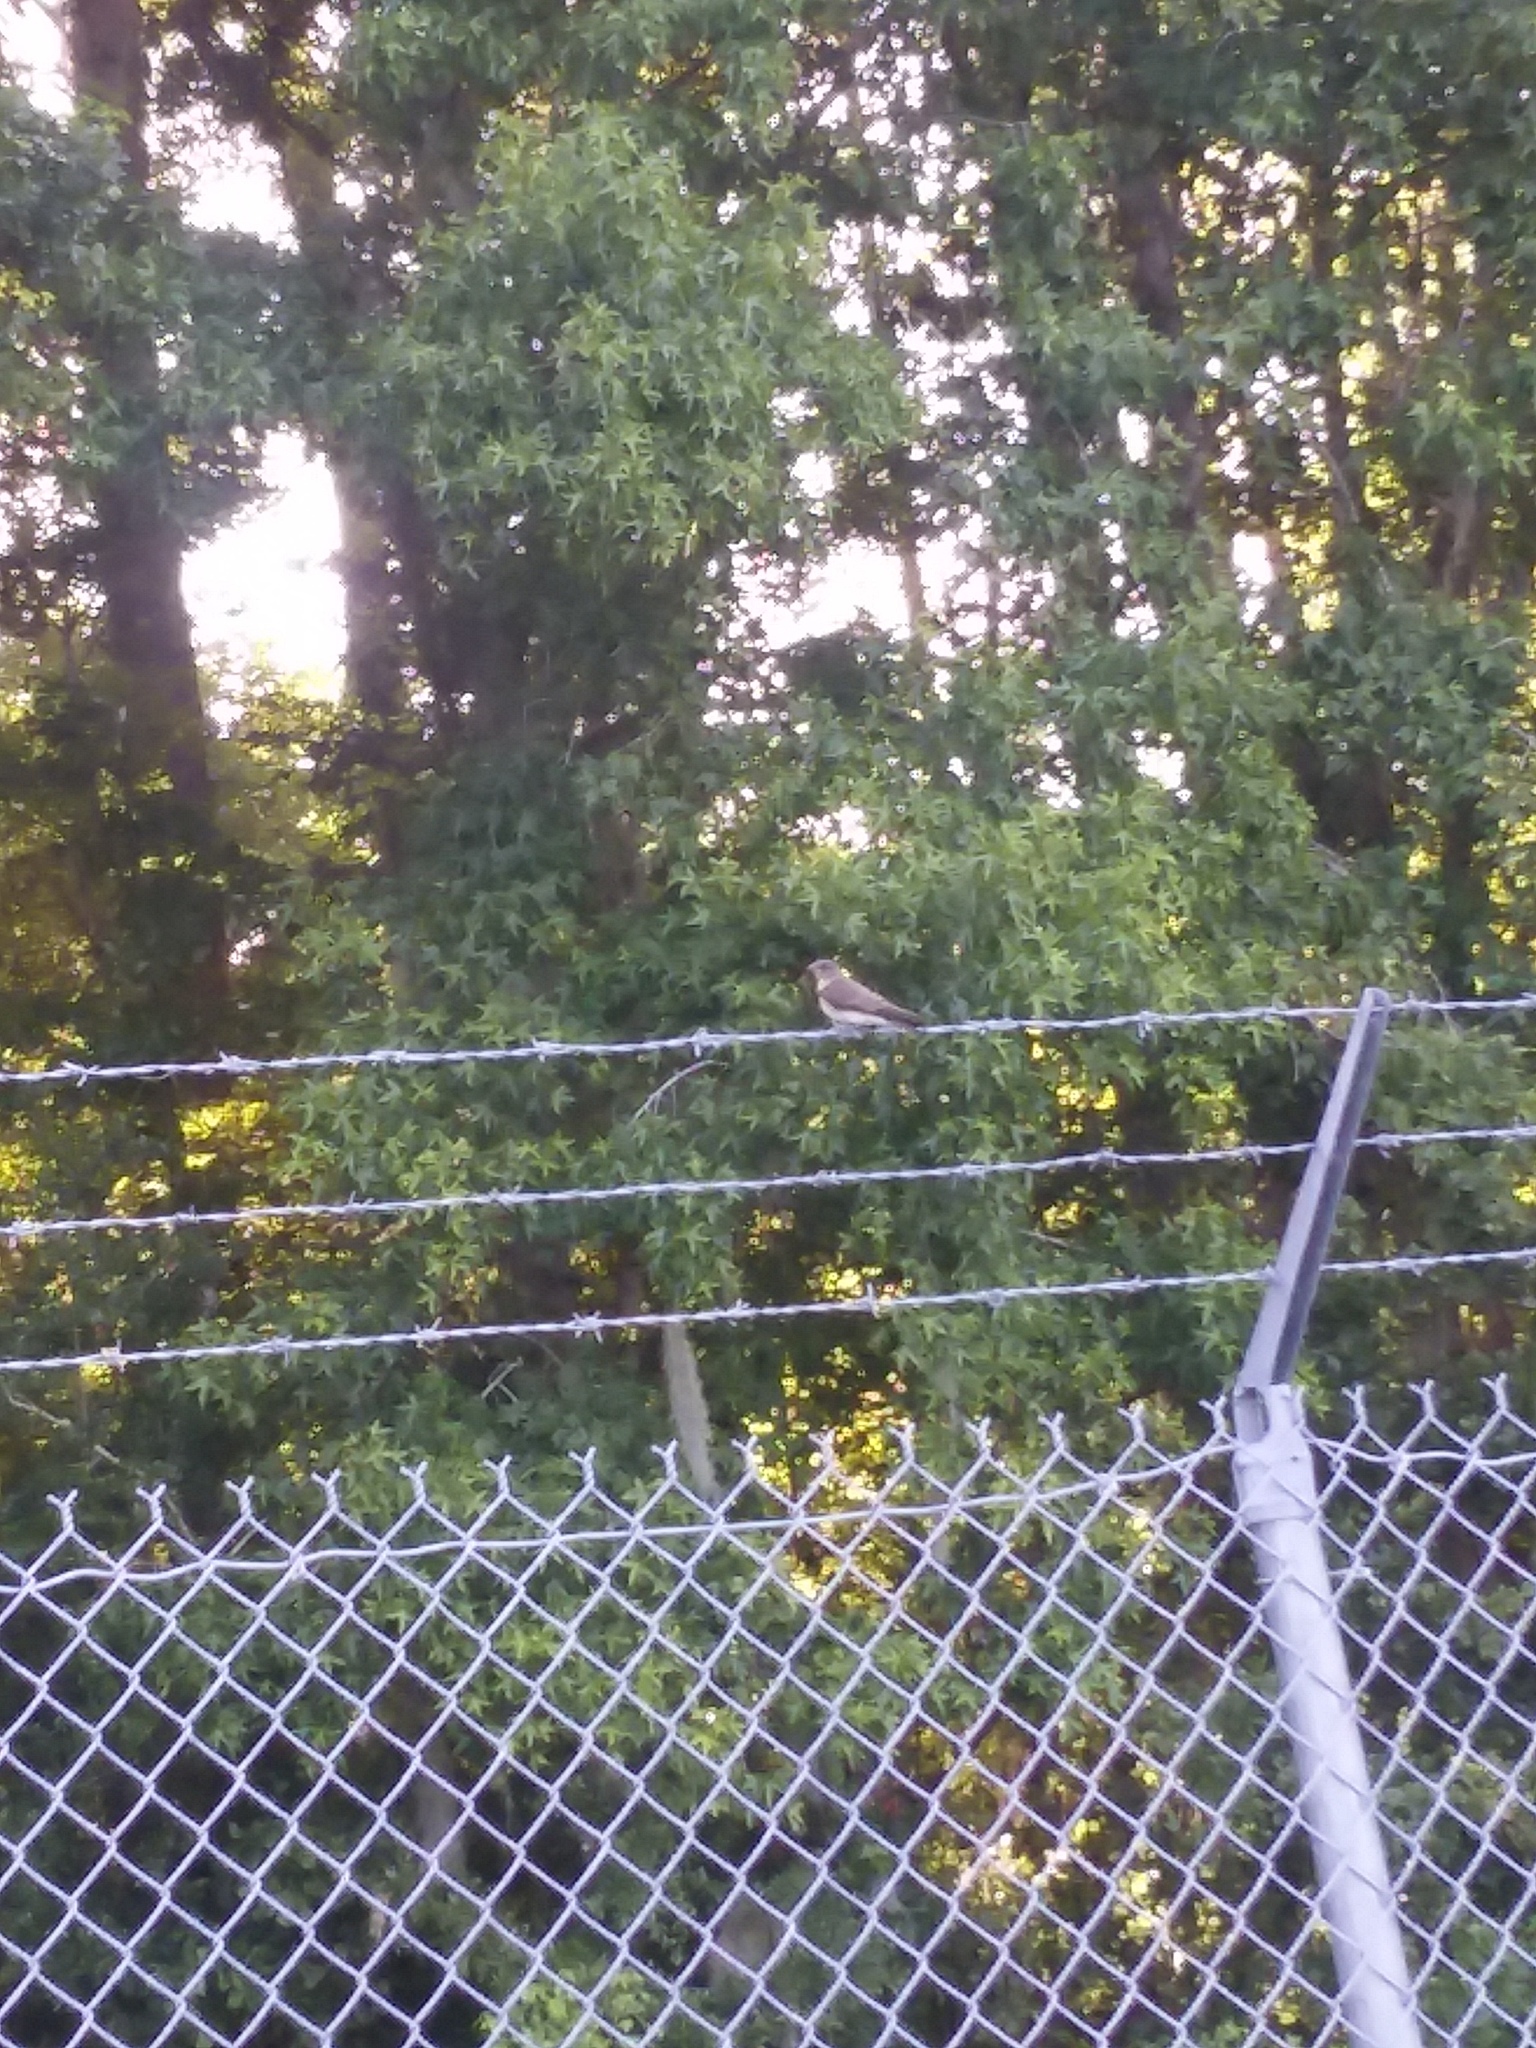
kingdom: Animalia
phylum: Chordata
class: Aves
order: Passeriformes
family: Hirundinidae
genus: Stelgidopteryx
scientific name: Stelgidopteryx serripennis
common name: Northern rough-winged swallow
